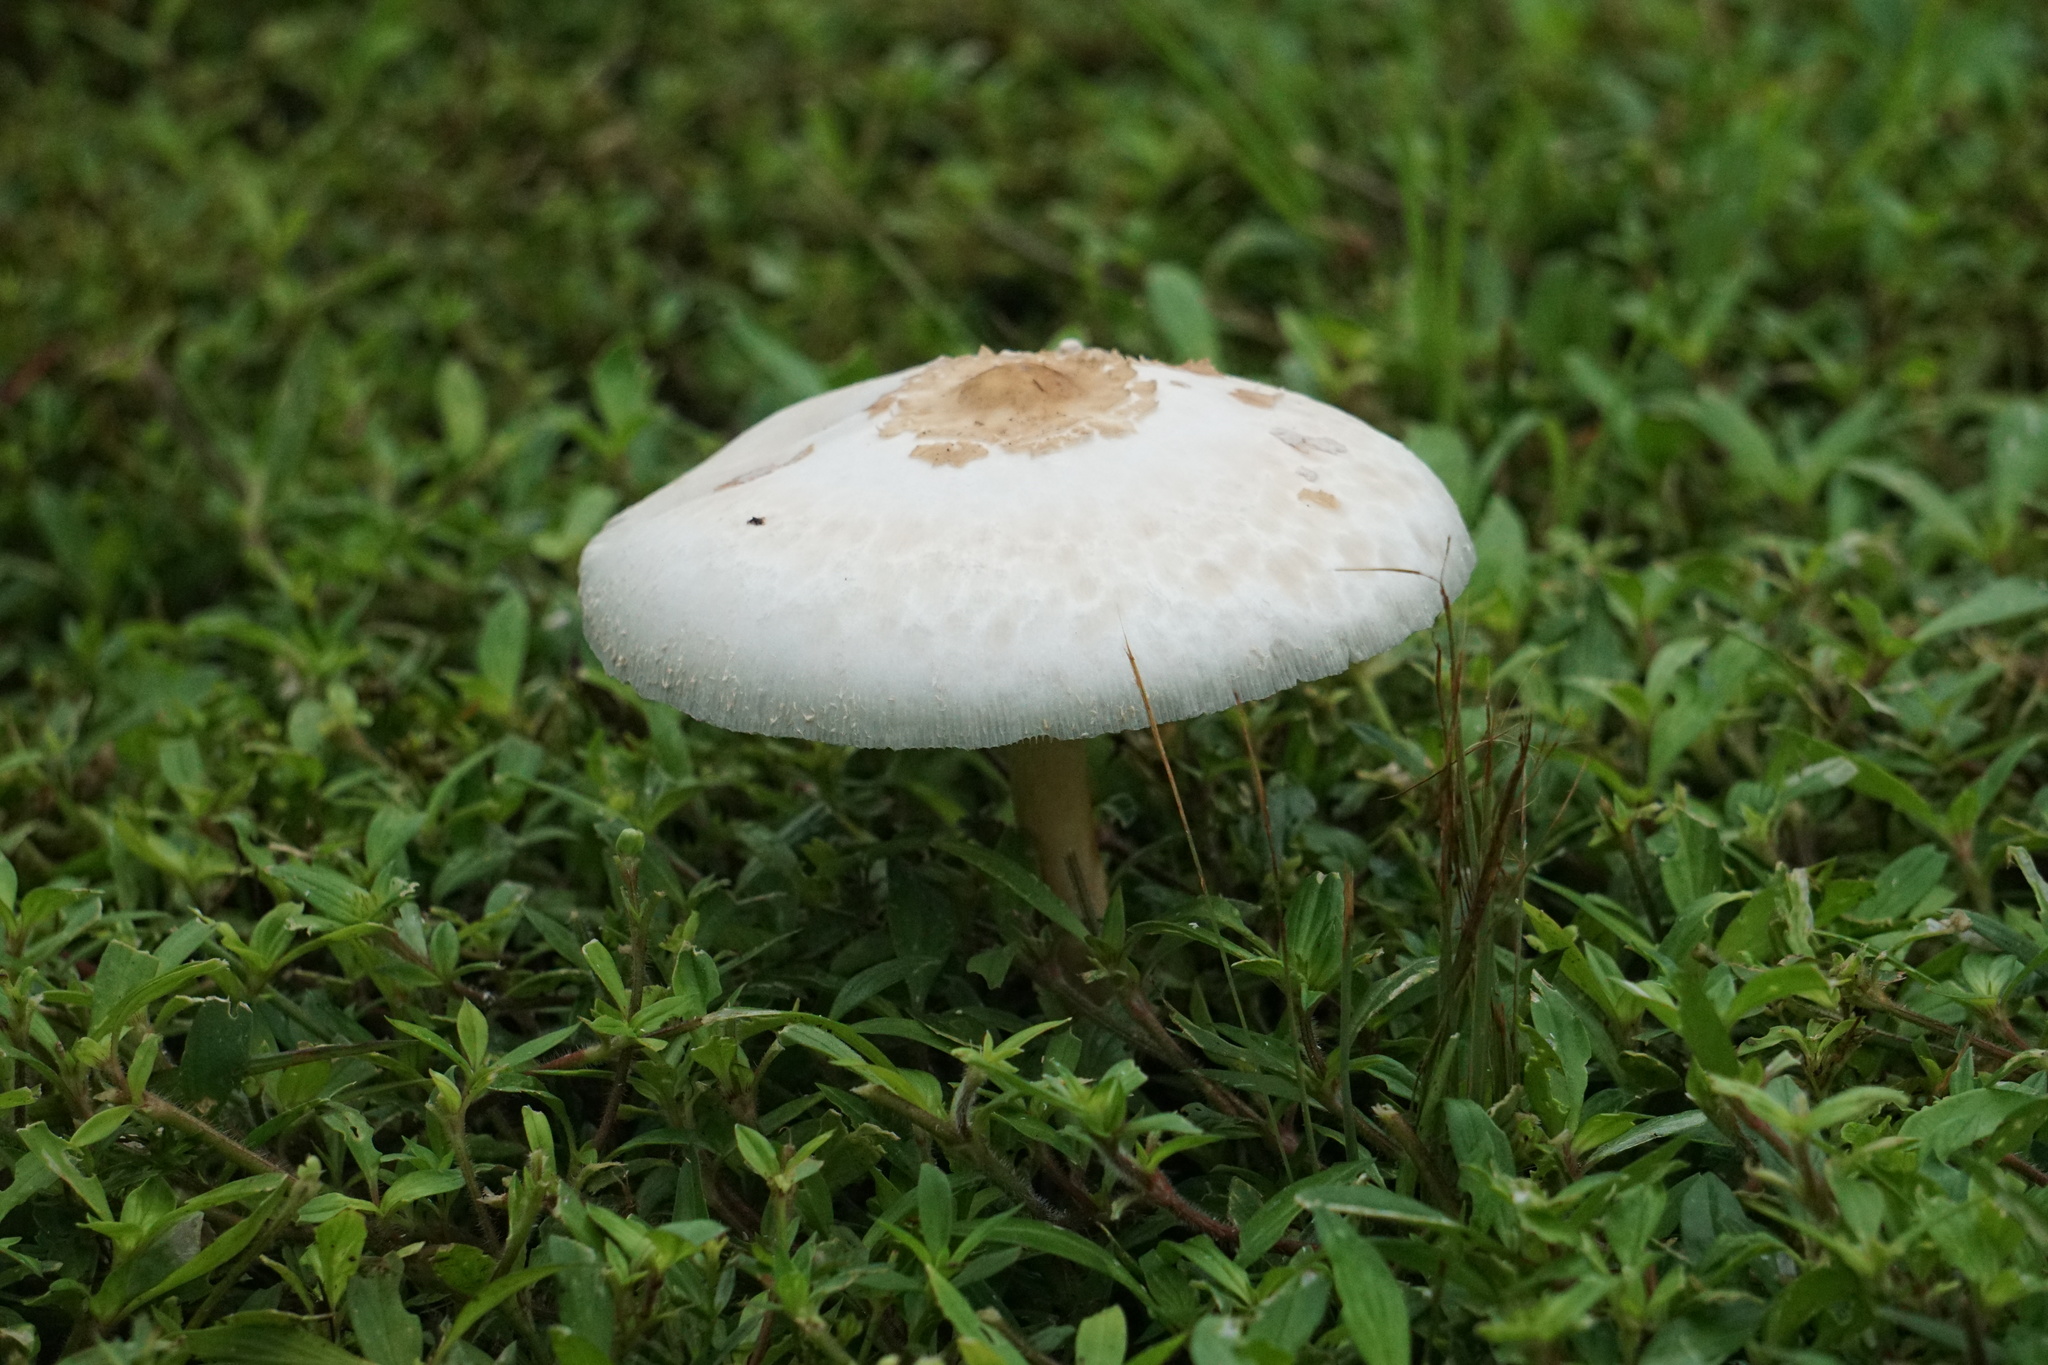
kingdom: Fungi
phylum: Basidiomycota
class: Agaricomycetes
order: Agaricales
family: Agaricaceae
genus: Chlorophyllum
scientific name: Chlorophyllum molybdites
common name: False parasol
